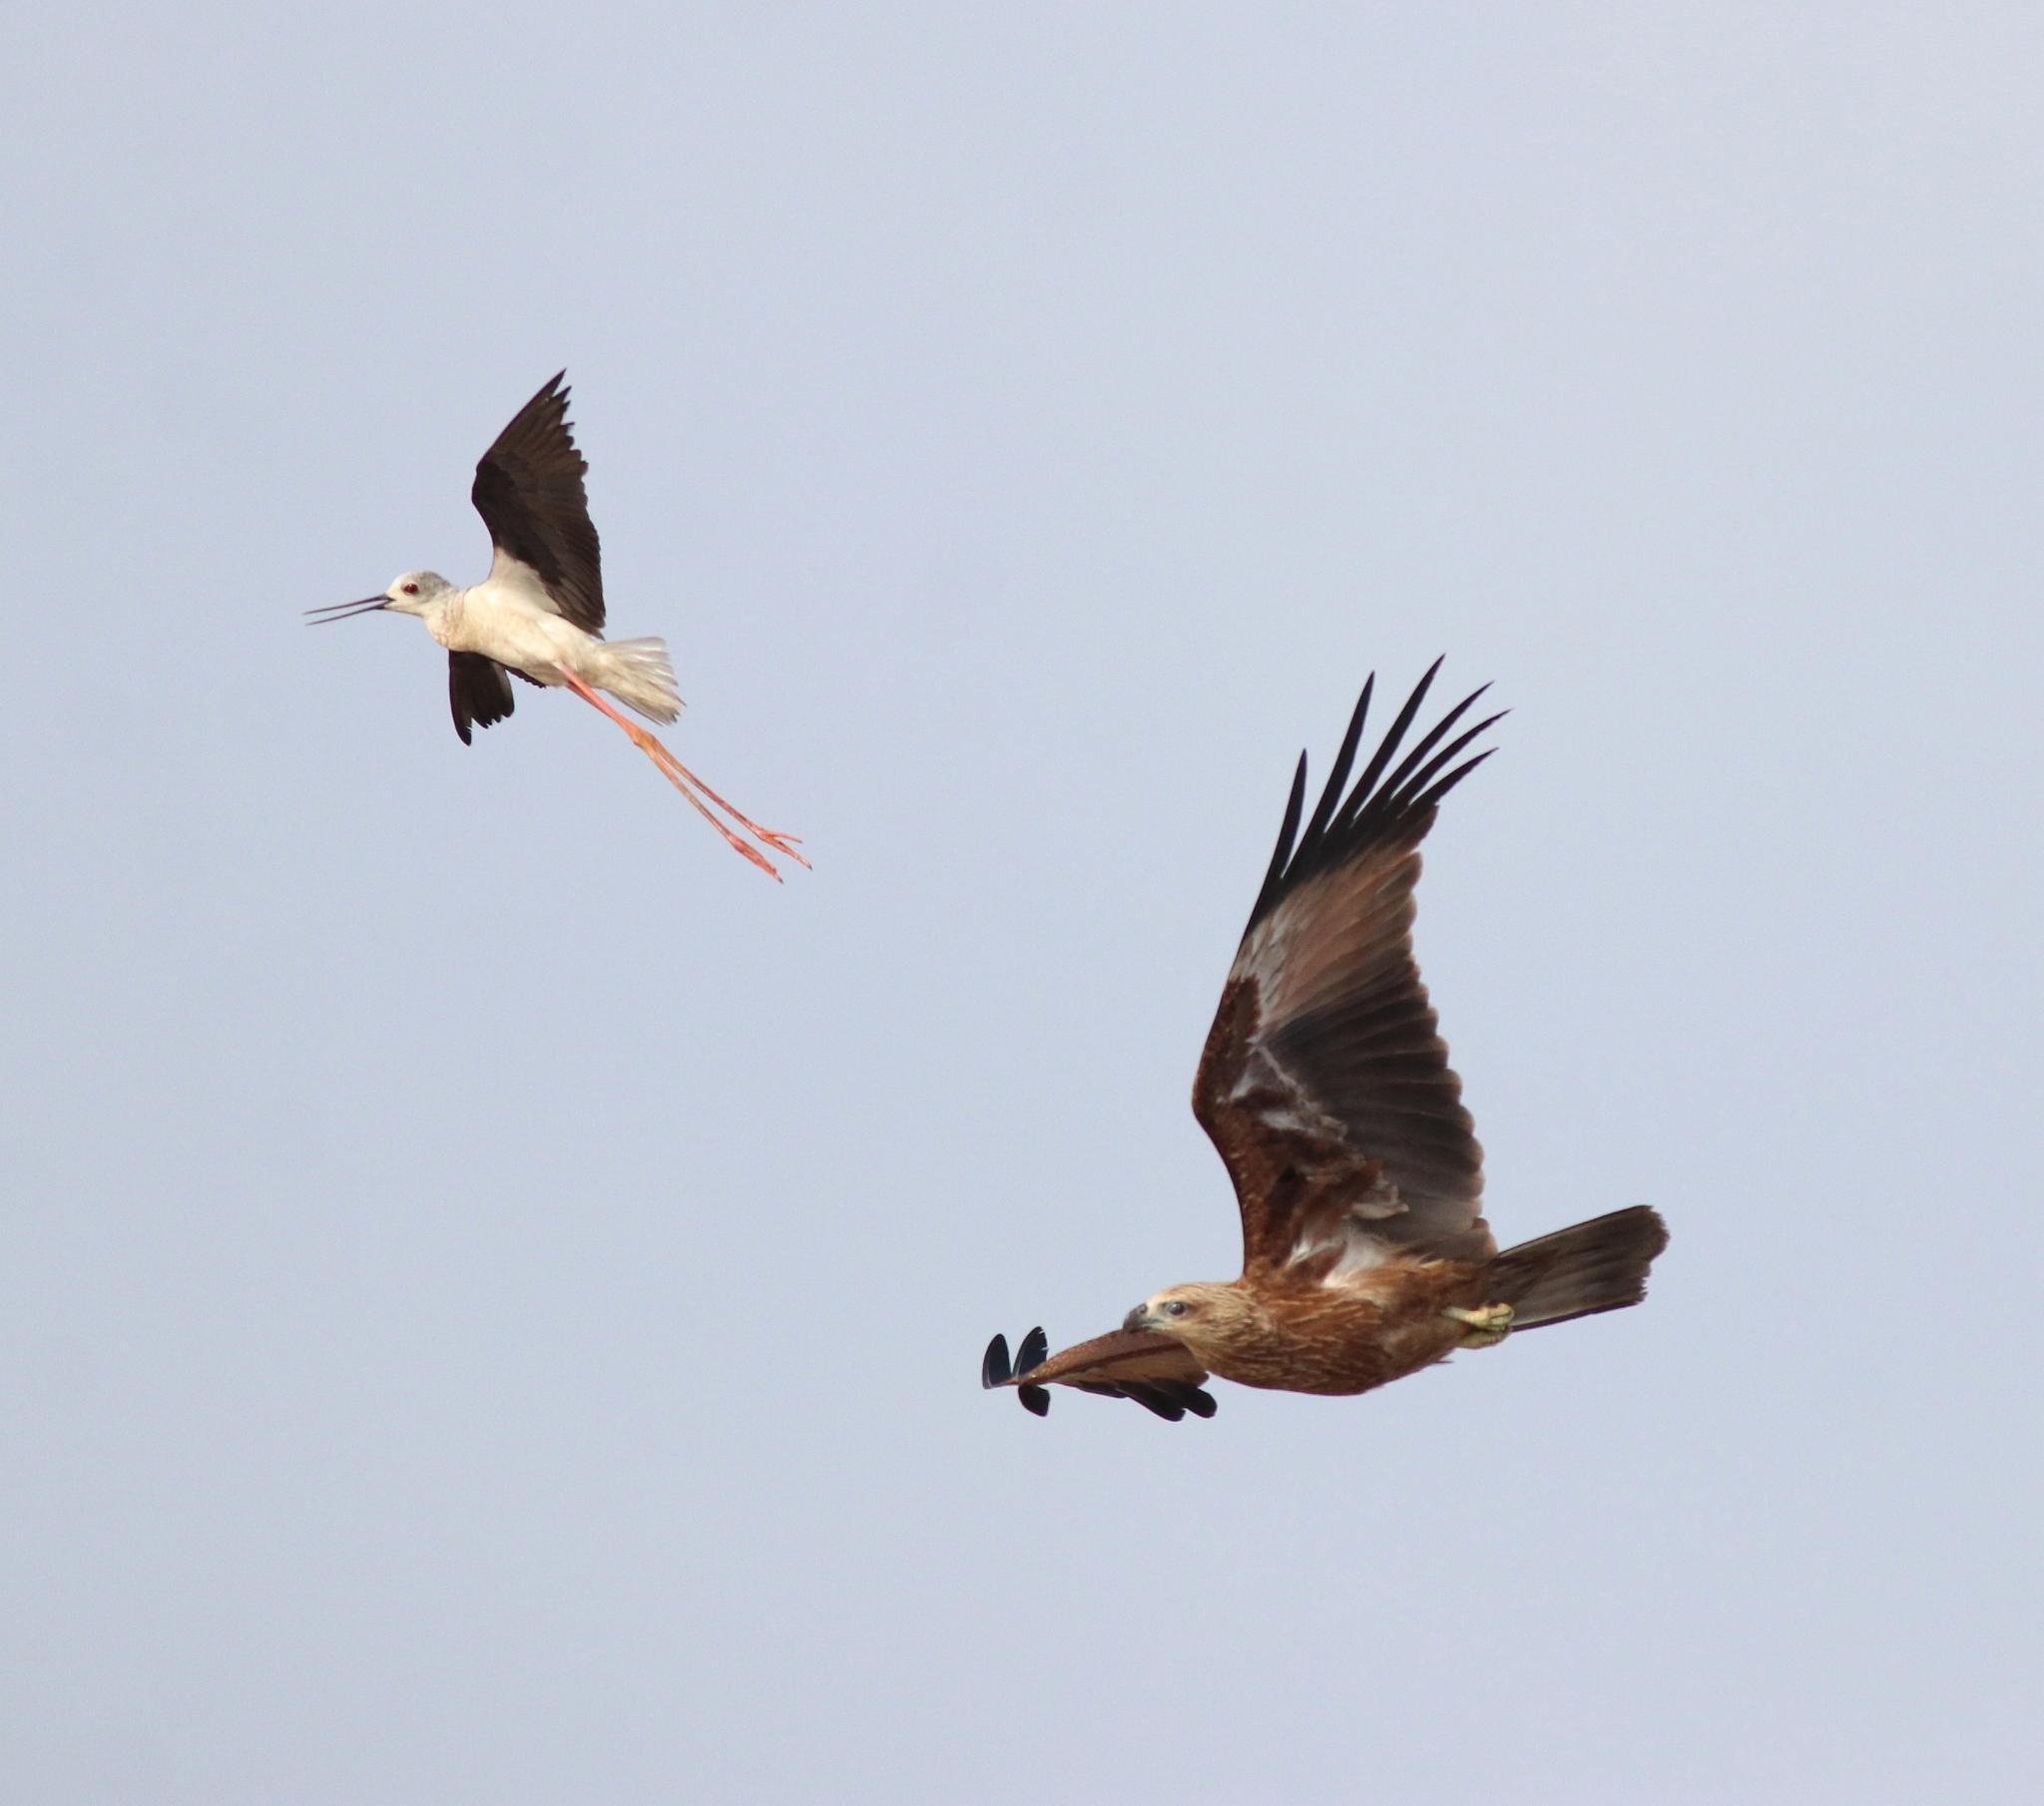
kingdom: Animalia
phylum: Chordata
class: Aves
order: Charadriiformes
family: Recurvirostridae
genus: Himantopus
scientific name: Himantopus himantopus
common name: Black-winged stilt
